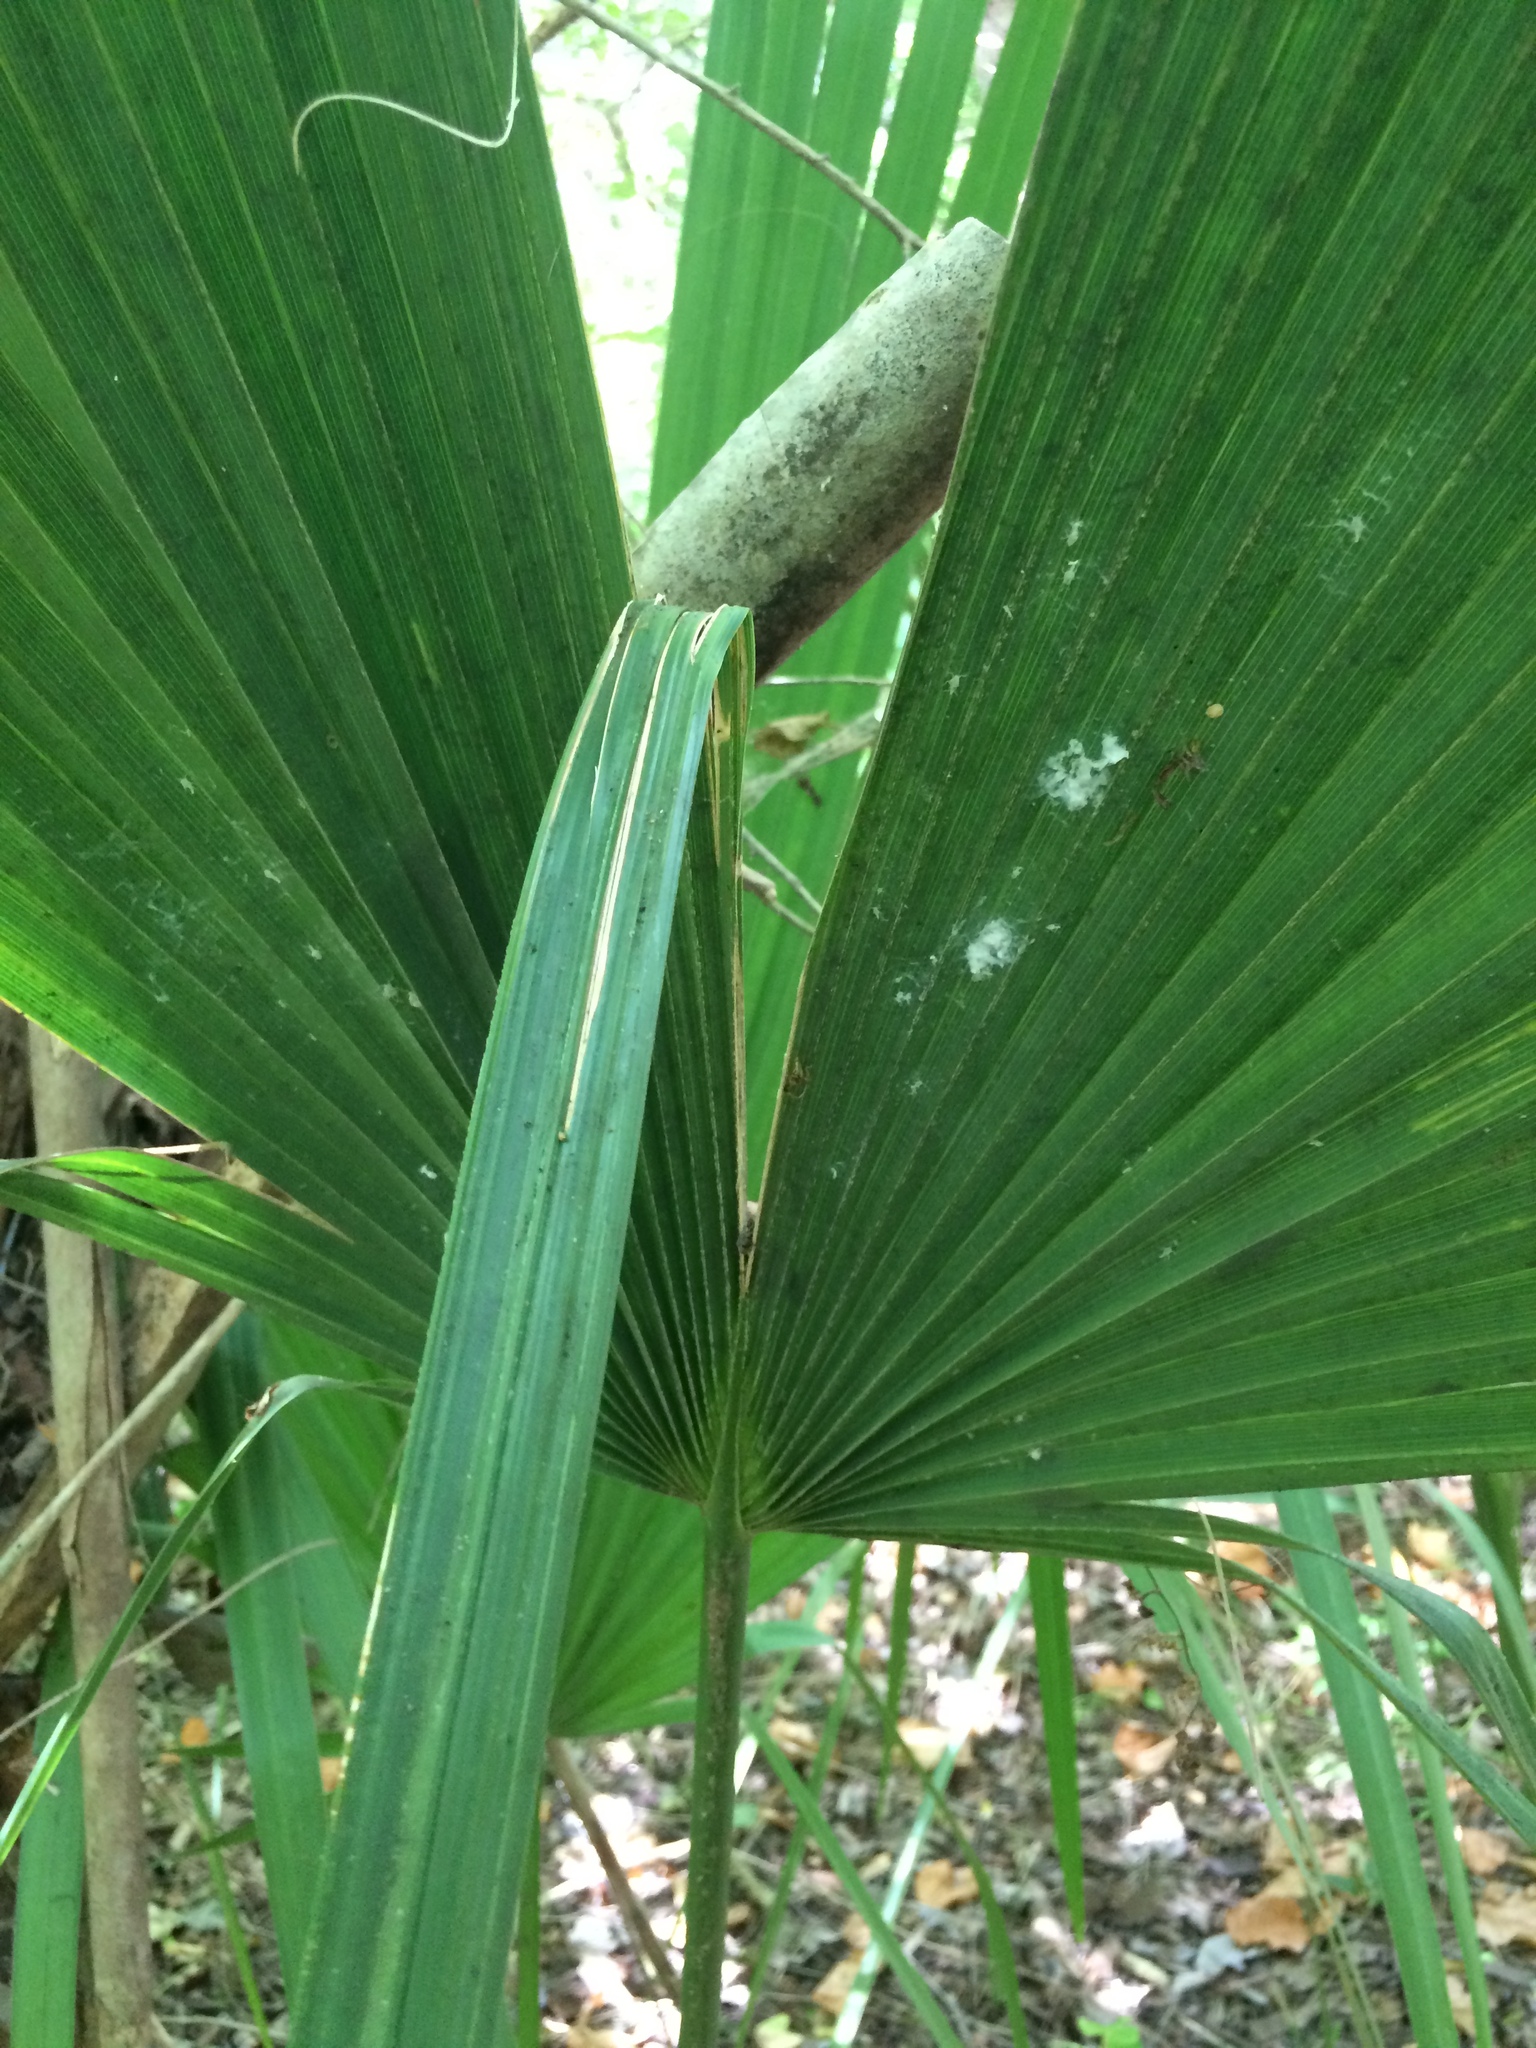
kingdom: Plantae
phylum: Tracheophyta
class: Liliopsida
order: Arecales
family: Arecaceae
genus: Sabal
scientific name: Sabal minor
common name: Dwarf palmetto
